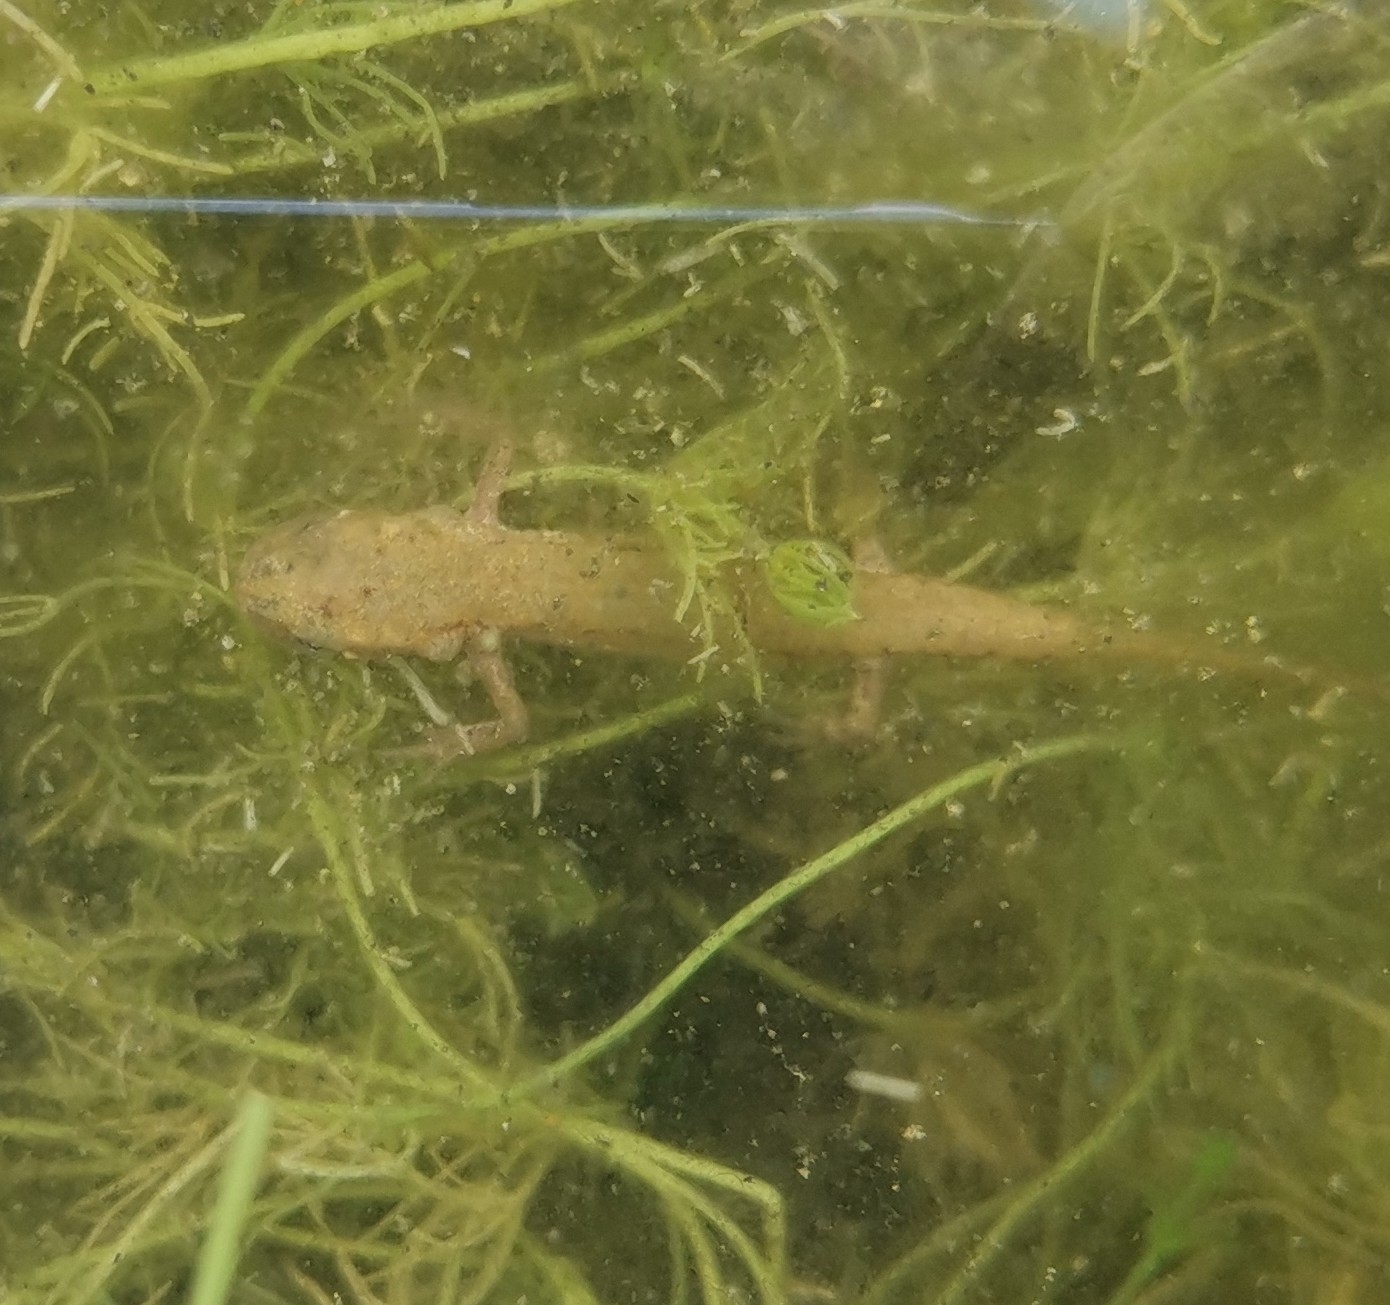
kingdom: Animalia
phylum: Chordata
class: Amphibia
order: Caudata
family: Salamandridae
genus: Lissotriton
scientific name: Lissotriton italicus
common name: Italian newt
